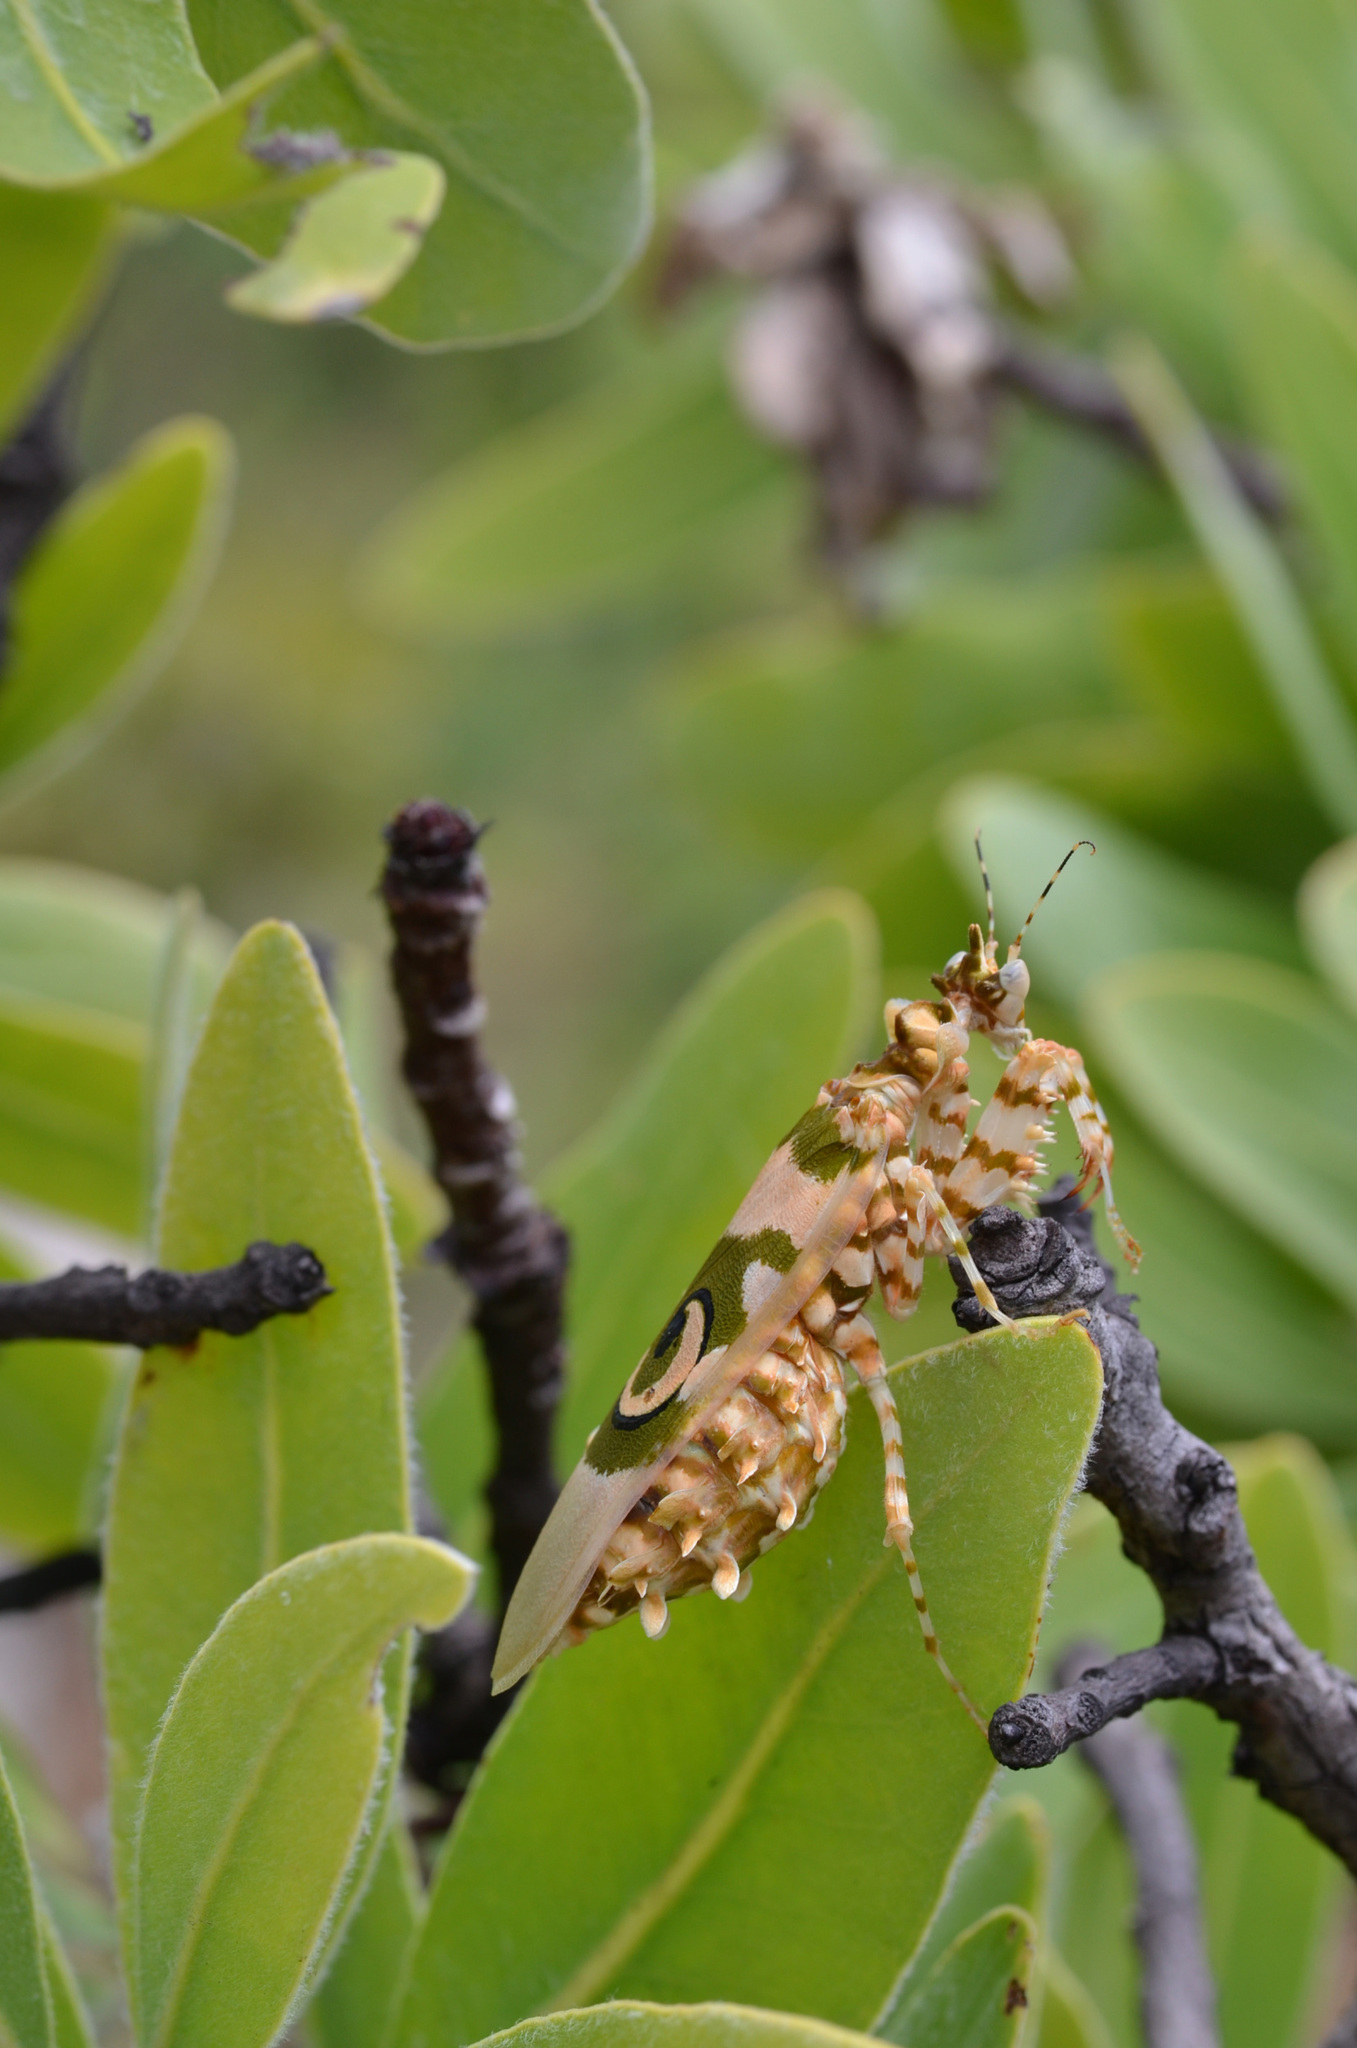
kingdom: Animalia
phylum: Arthropoda
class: Insecta
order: Mantodea
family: Hymenopodidae
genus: Pseudocreobotra
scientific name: Pseudocreobotra wahlbergi
